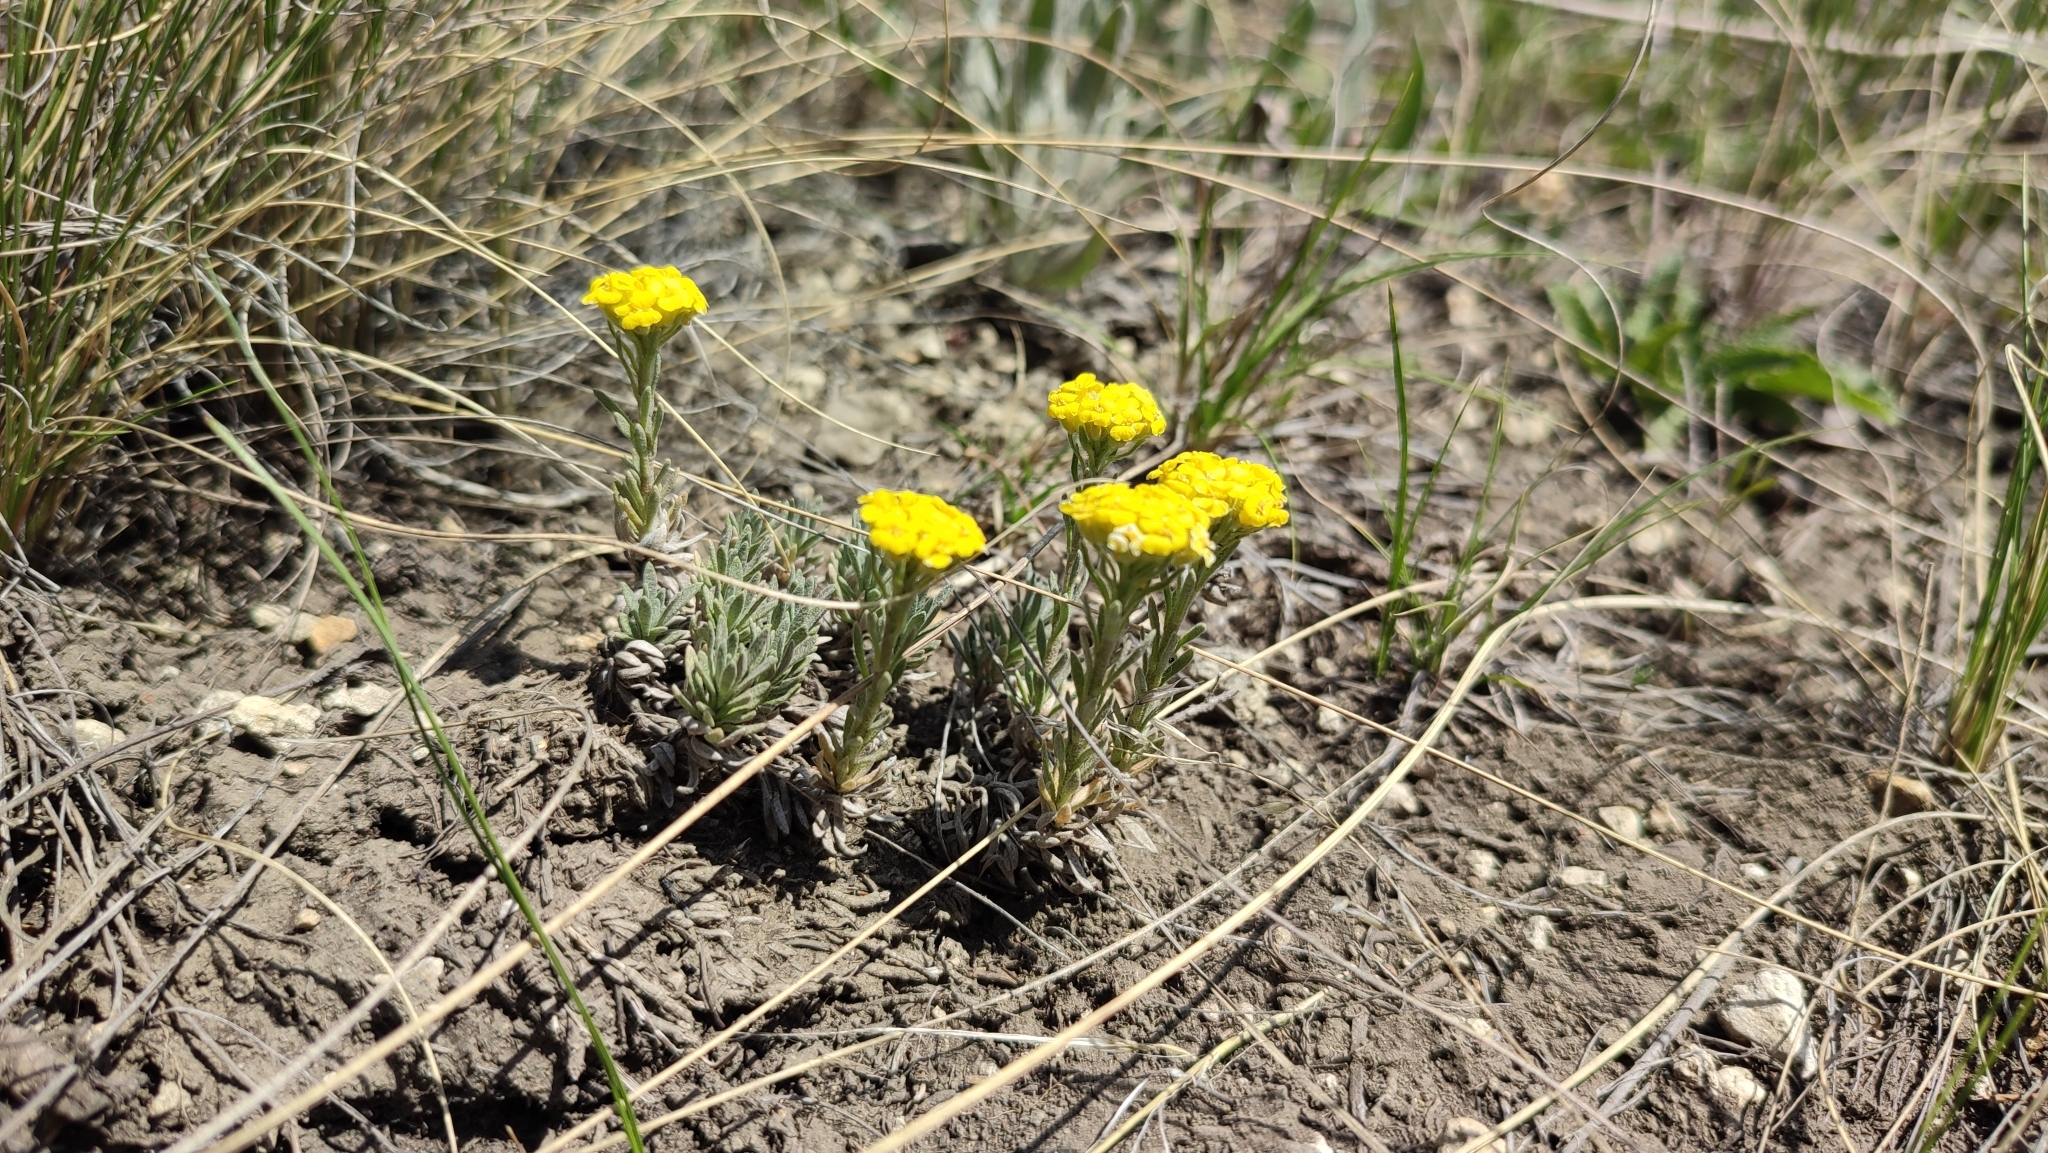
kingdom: Plantae
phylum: Tracheophyta
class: Magnoliopsida
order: Brassicales
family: Brassicaceae
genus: Alyssum
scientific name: Alyssum lenense
